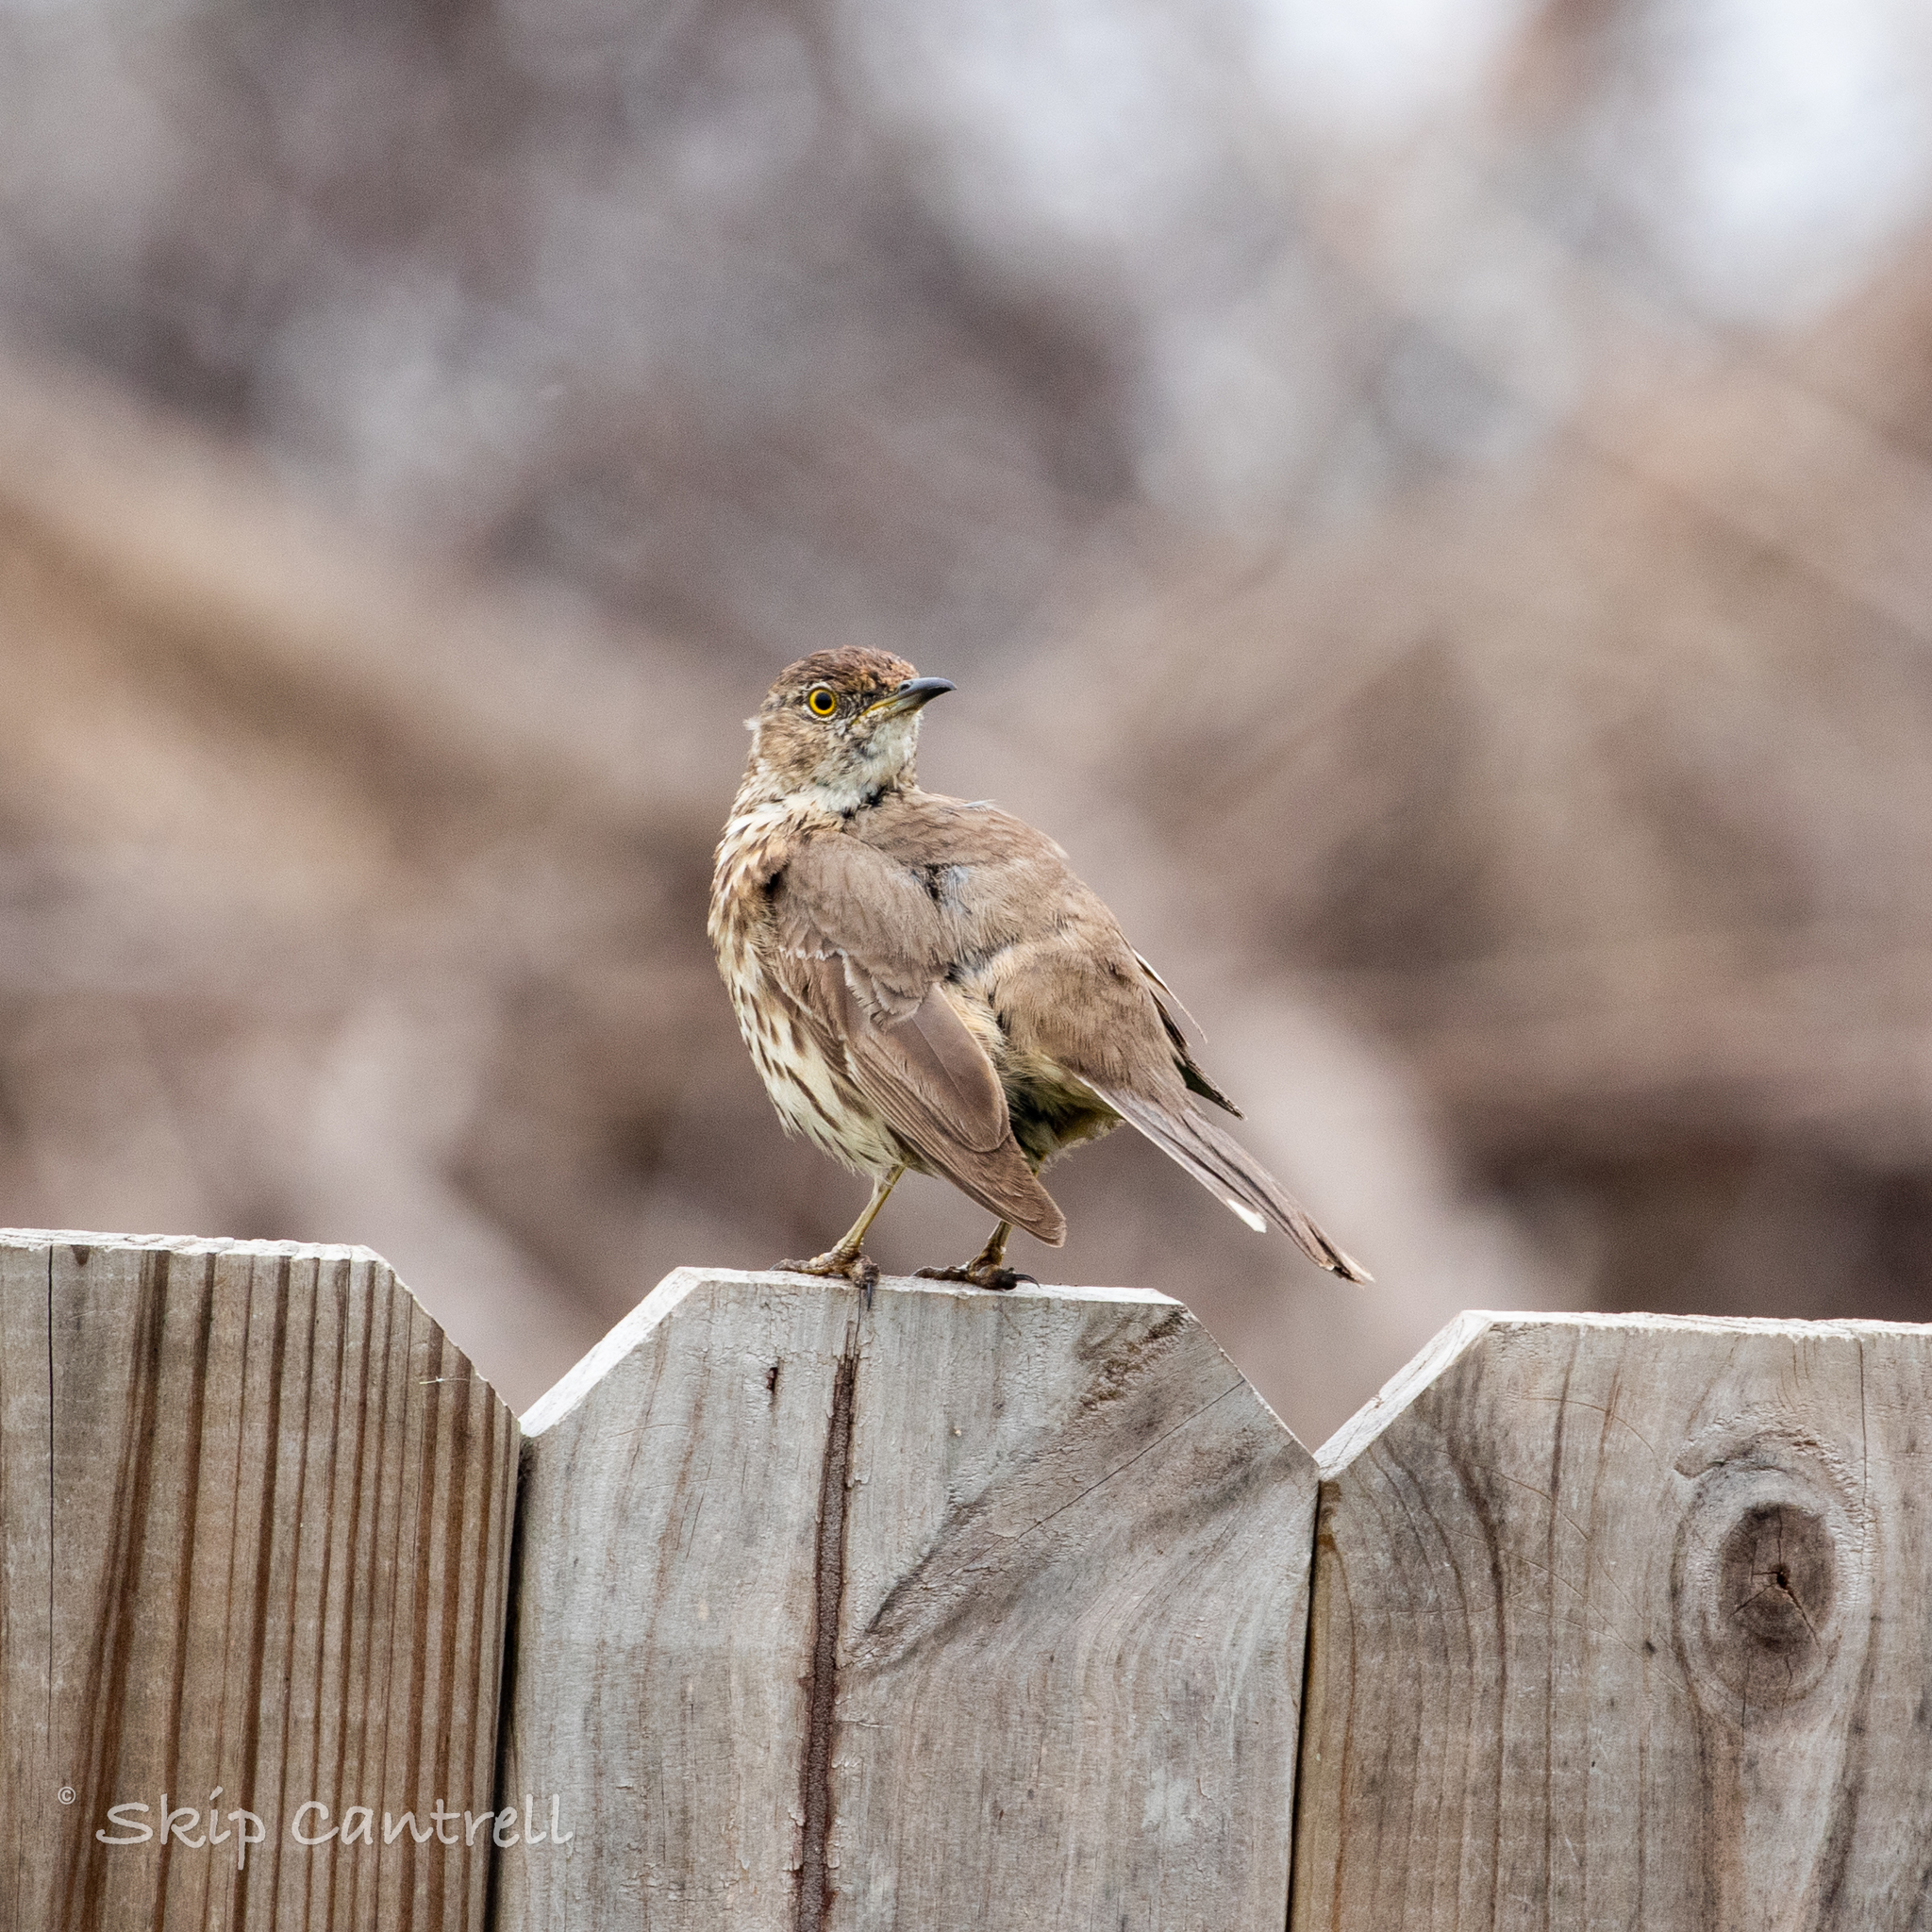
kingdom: Animalia
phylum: Chordata
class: Aves
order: Passeriformes
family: Mimidae
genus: Oreoscoptes
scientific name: Oreoscoptes montanus
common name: Sage thrasher
